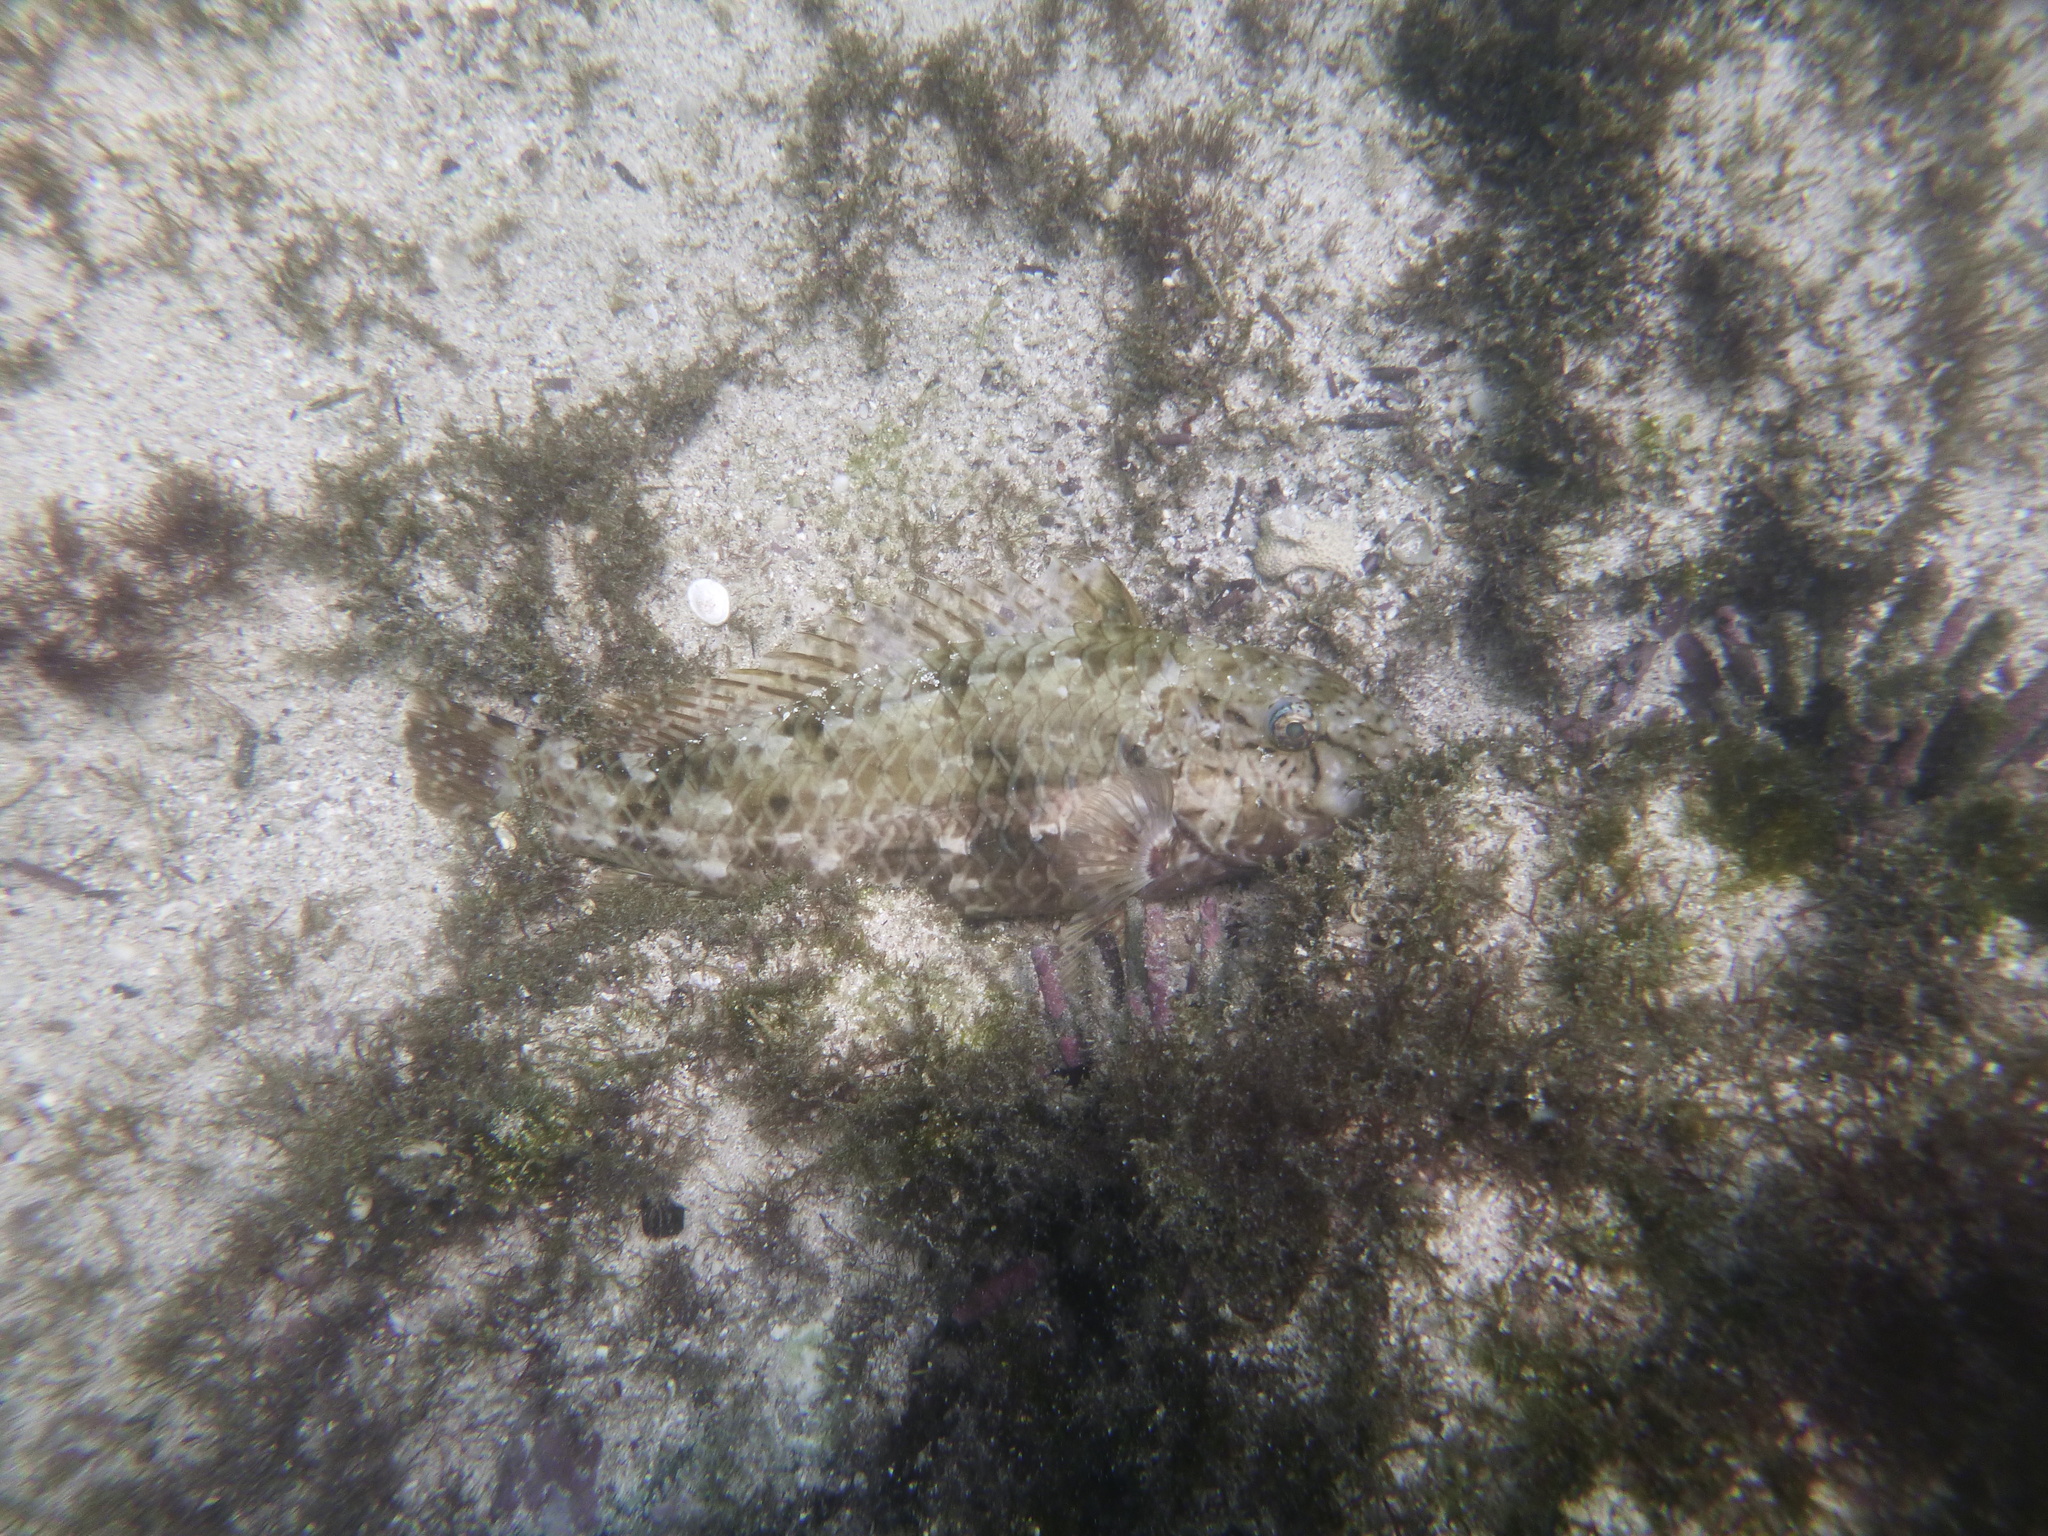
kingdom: Animalia
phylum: Chordata
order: Perciformes
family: Scaridae
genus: Nicholsina
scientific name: Nicholsina denticulata
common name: Loosetooth parrotfish
